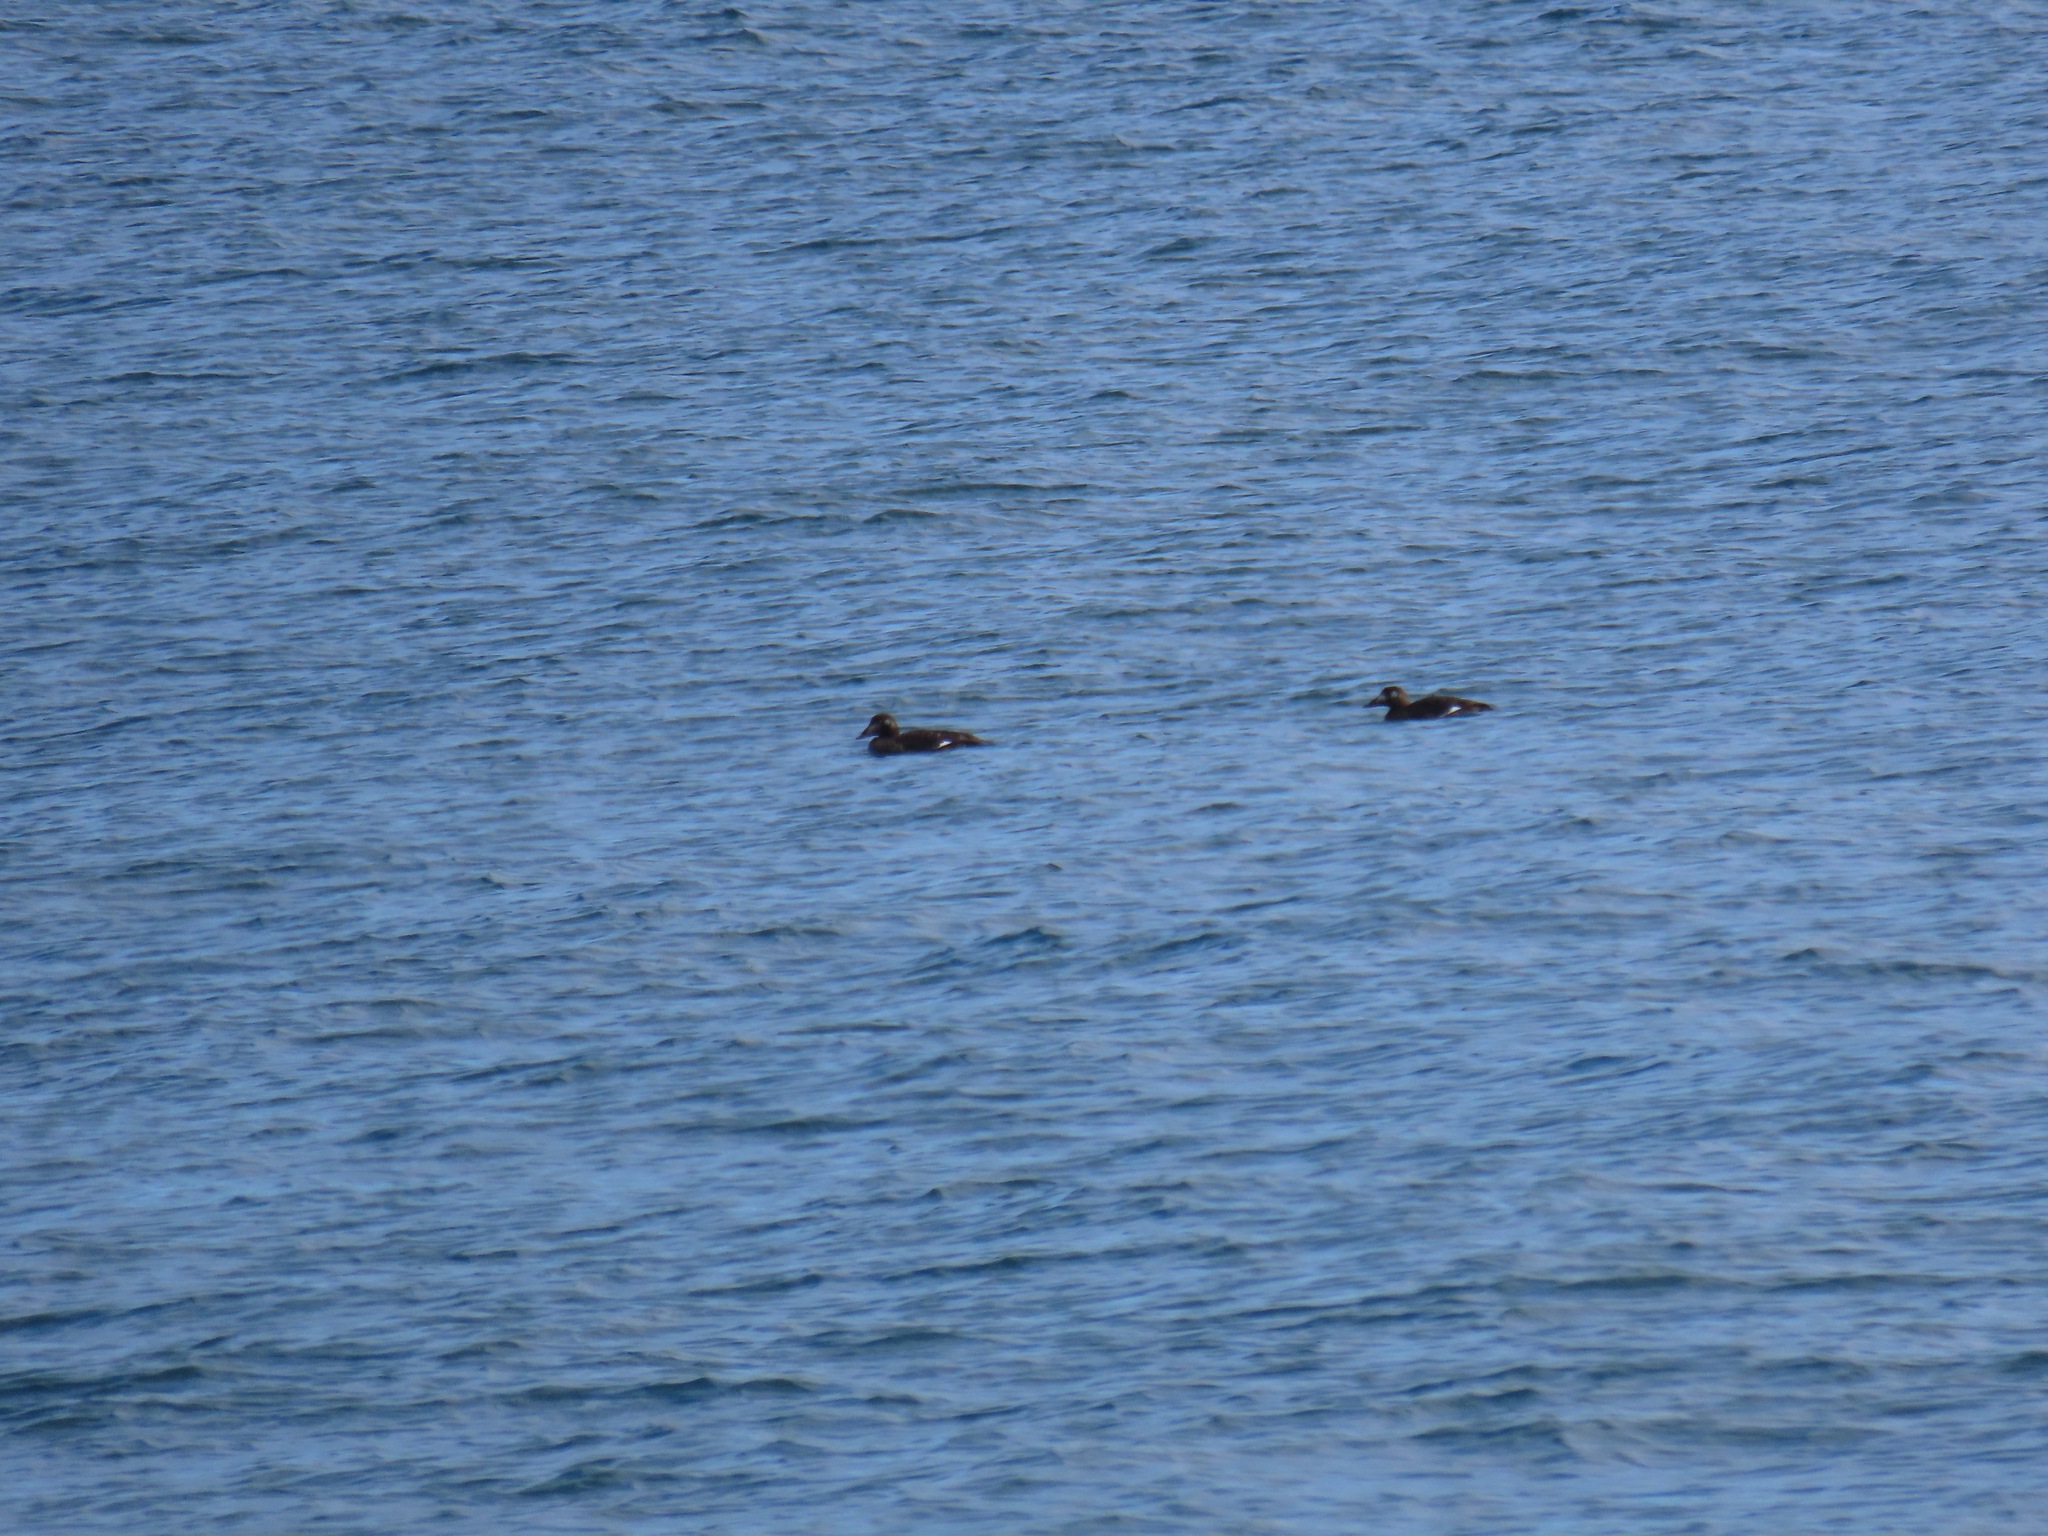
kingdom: Animalia
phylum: Chordata
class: Aves
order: Anseriformes
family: Anatidae
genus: Melanitta
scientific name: Melanitta deglandi
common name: White-winged scoter
